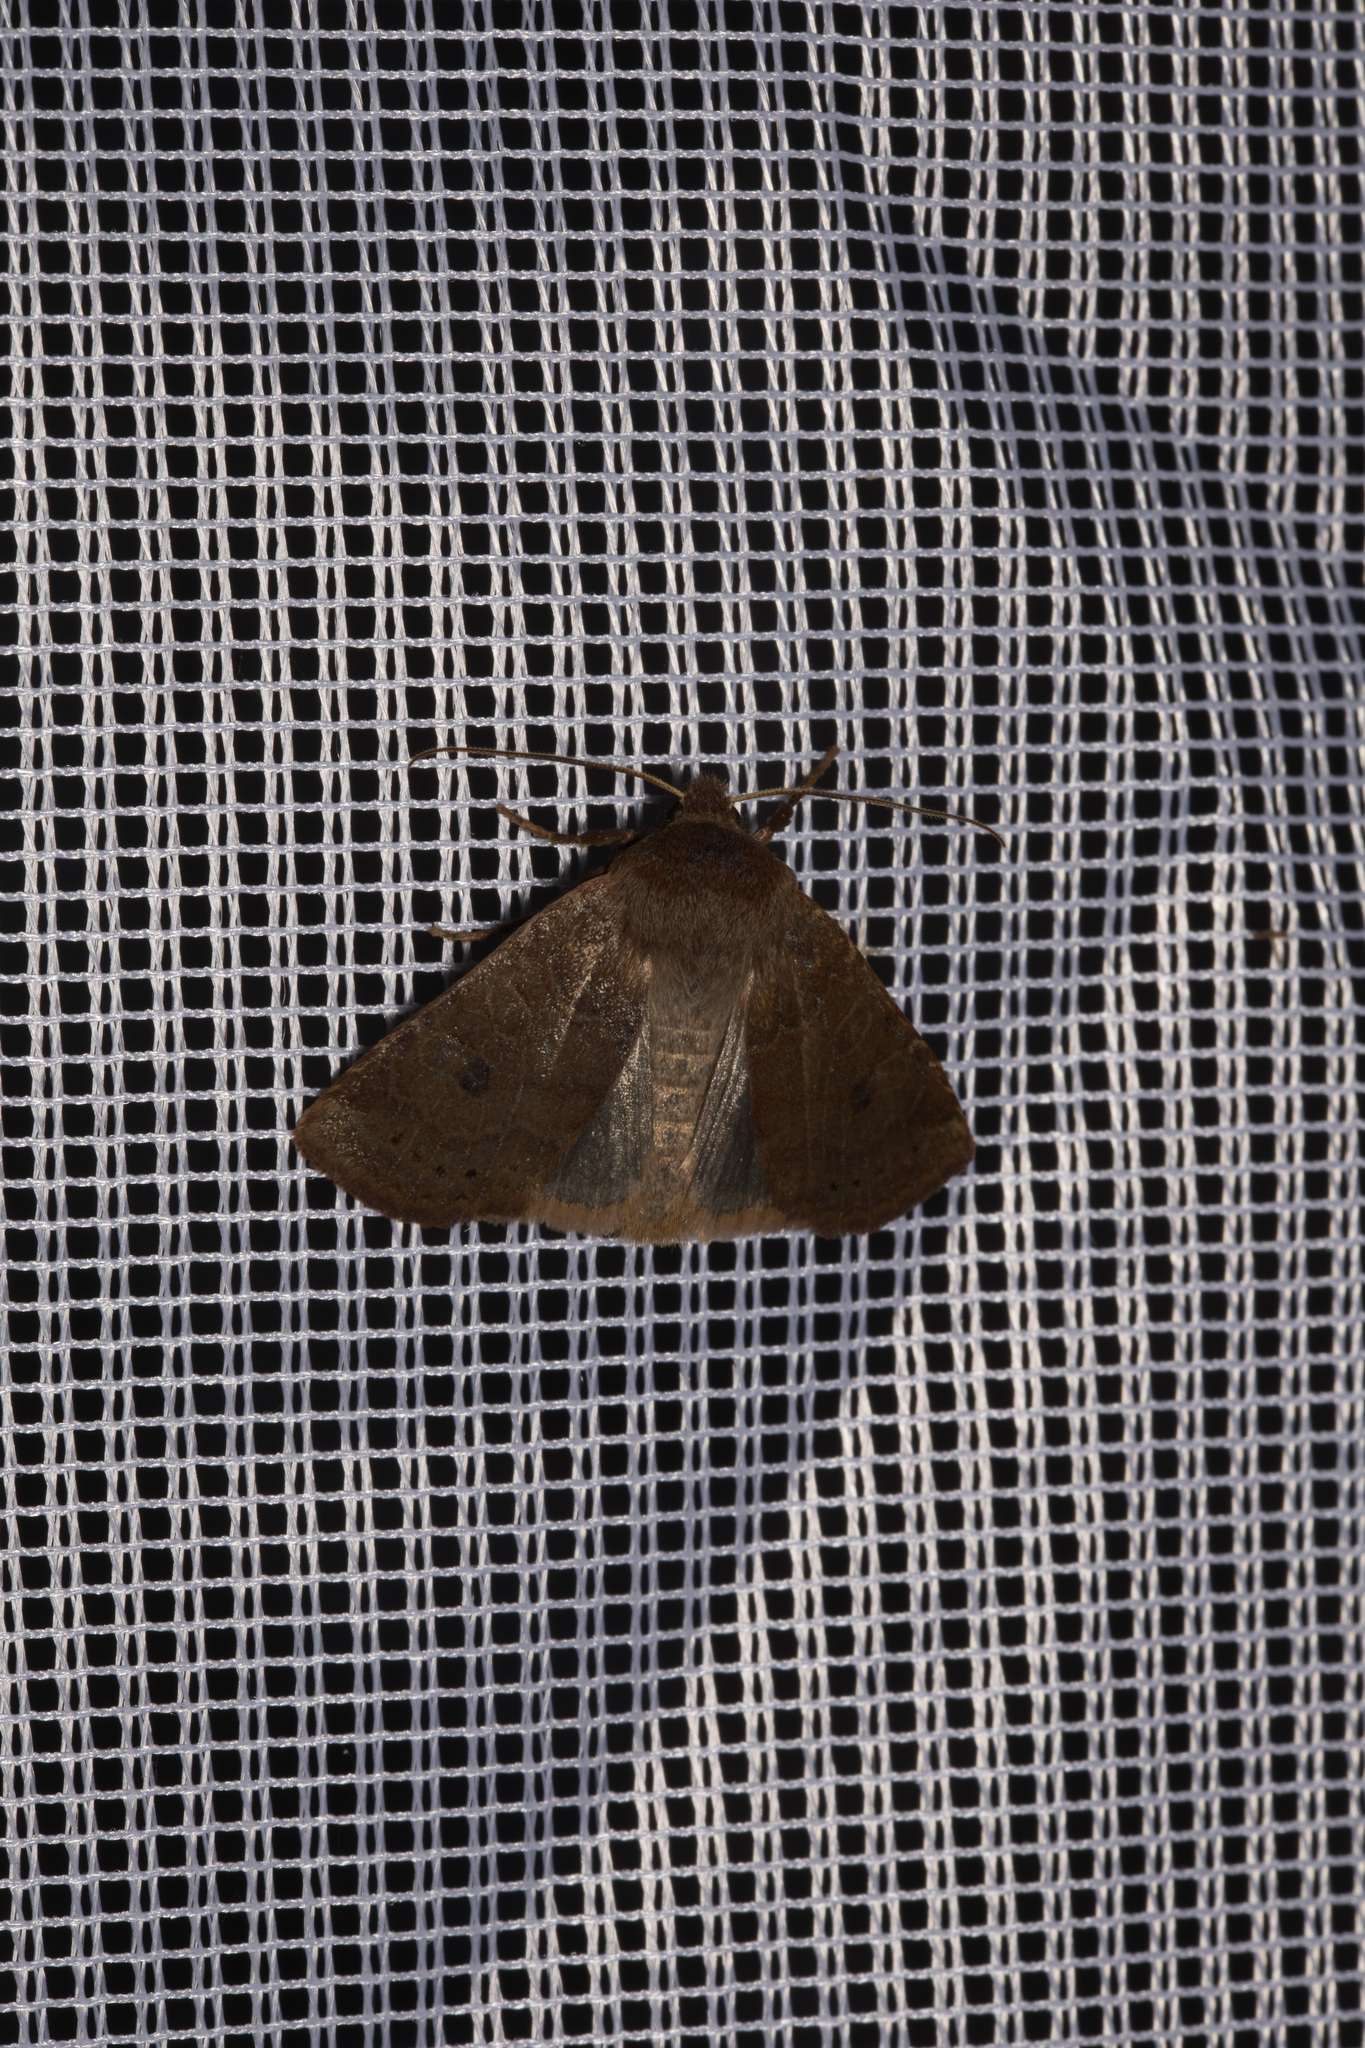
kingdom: Animalia
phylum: Arthropoda
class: Insecta
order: Lepidoptera
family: Noctuidae
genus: Conistra
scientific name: Conistra vaccinii
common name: Chestnut
